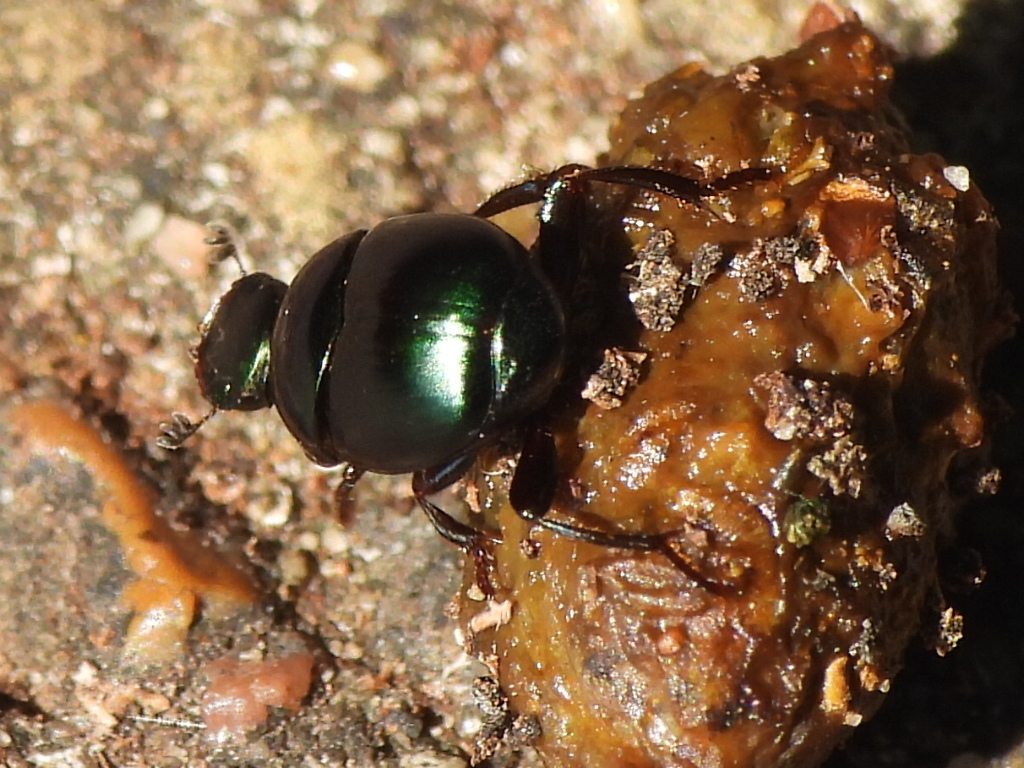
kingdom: Animalia
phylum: Arthropoda
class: Insecta
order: Coleoptera
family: Scarabaeidae
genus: Canthon
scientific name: Canthon viridis
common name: Tumblebug
